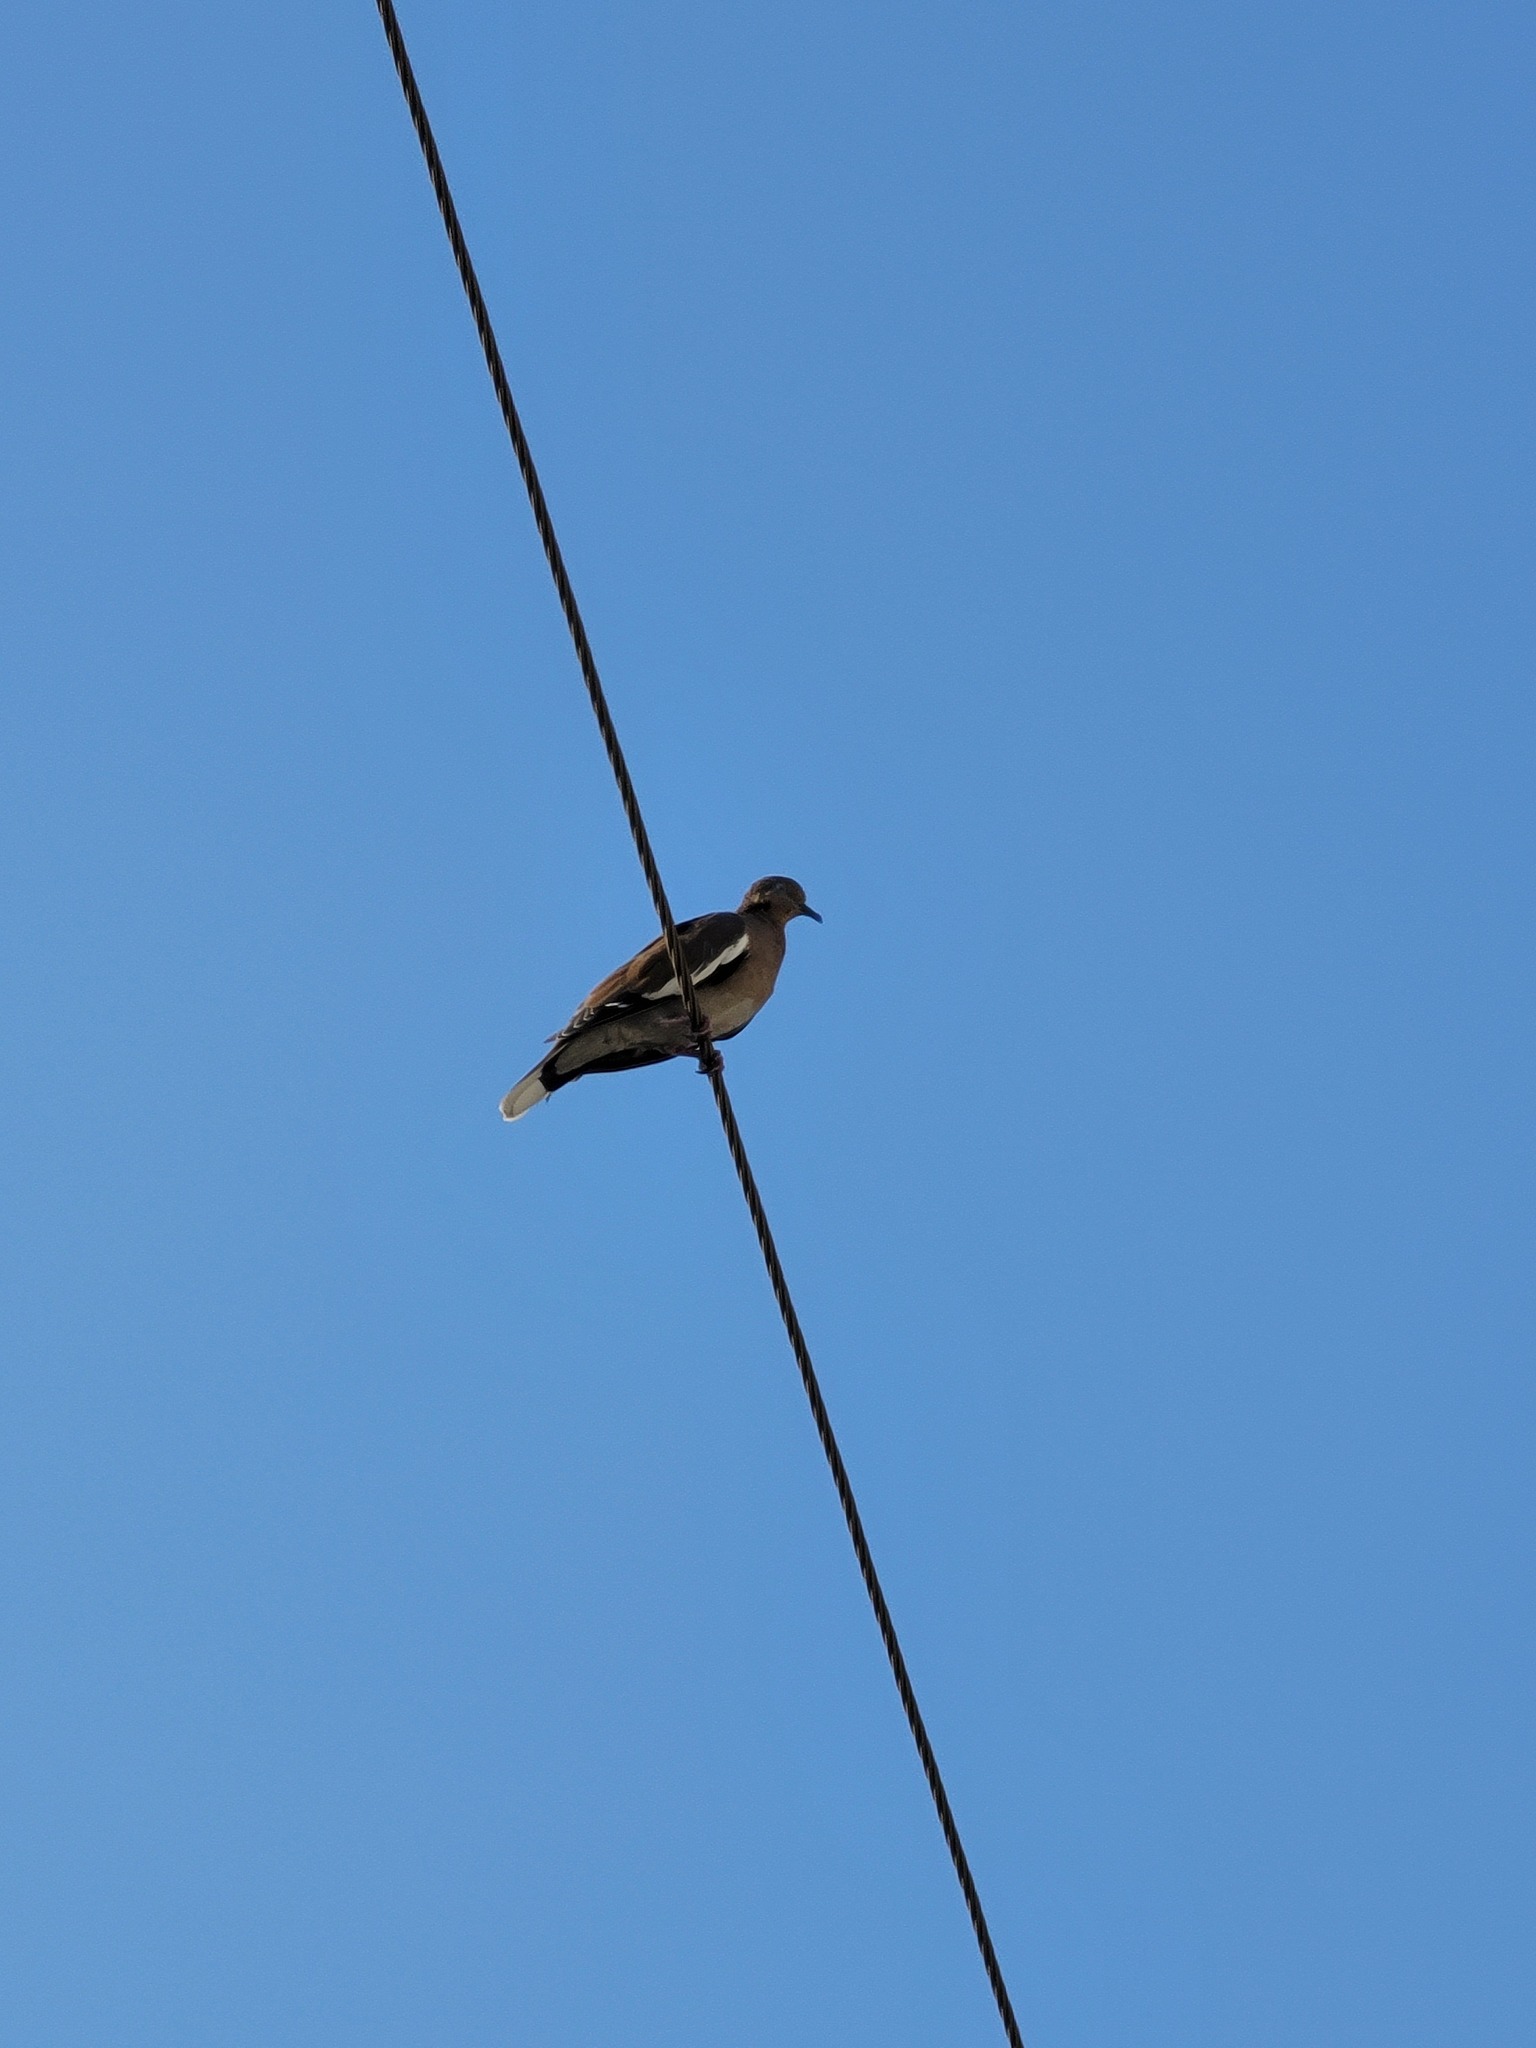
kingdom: Animalia
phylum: Chordata
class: Aves
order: Columbiformes
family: Columbidae
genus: Zenaida
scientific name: Zenaida asiatica
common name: White-winged dove
